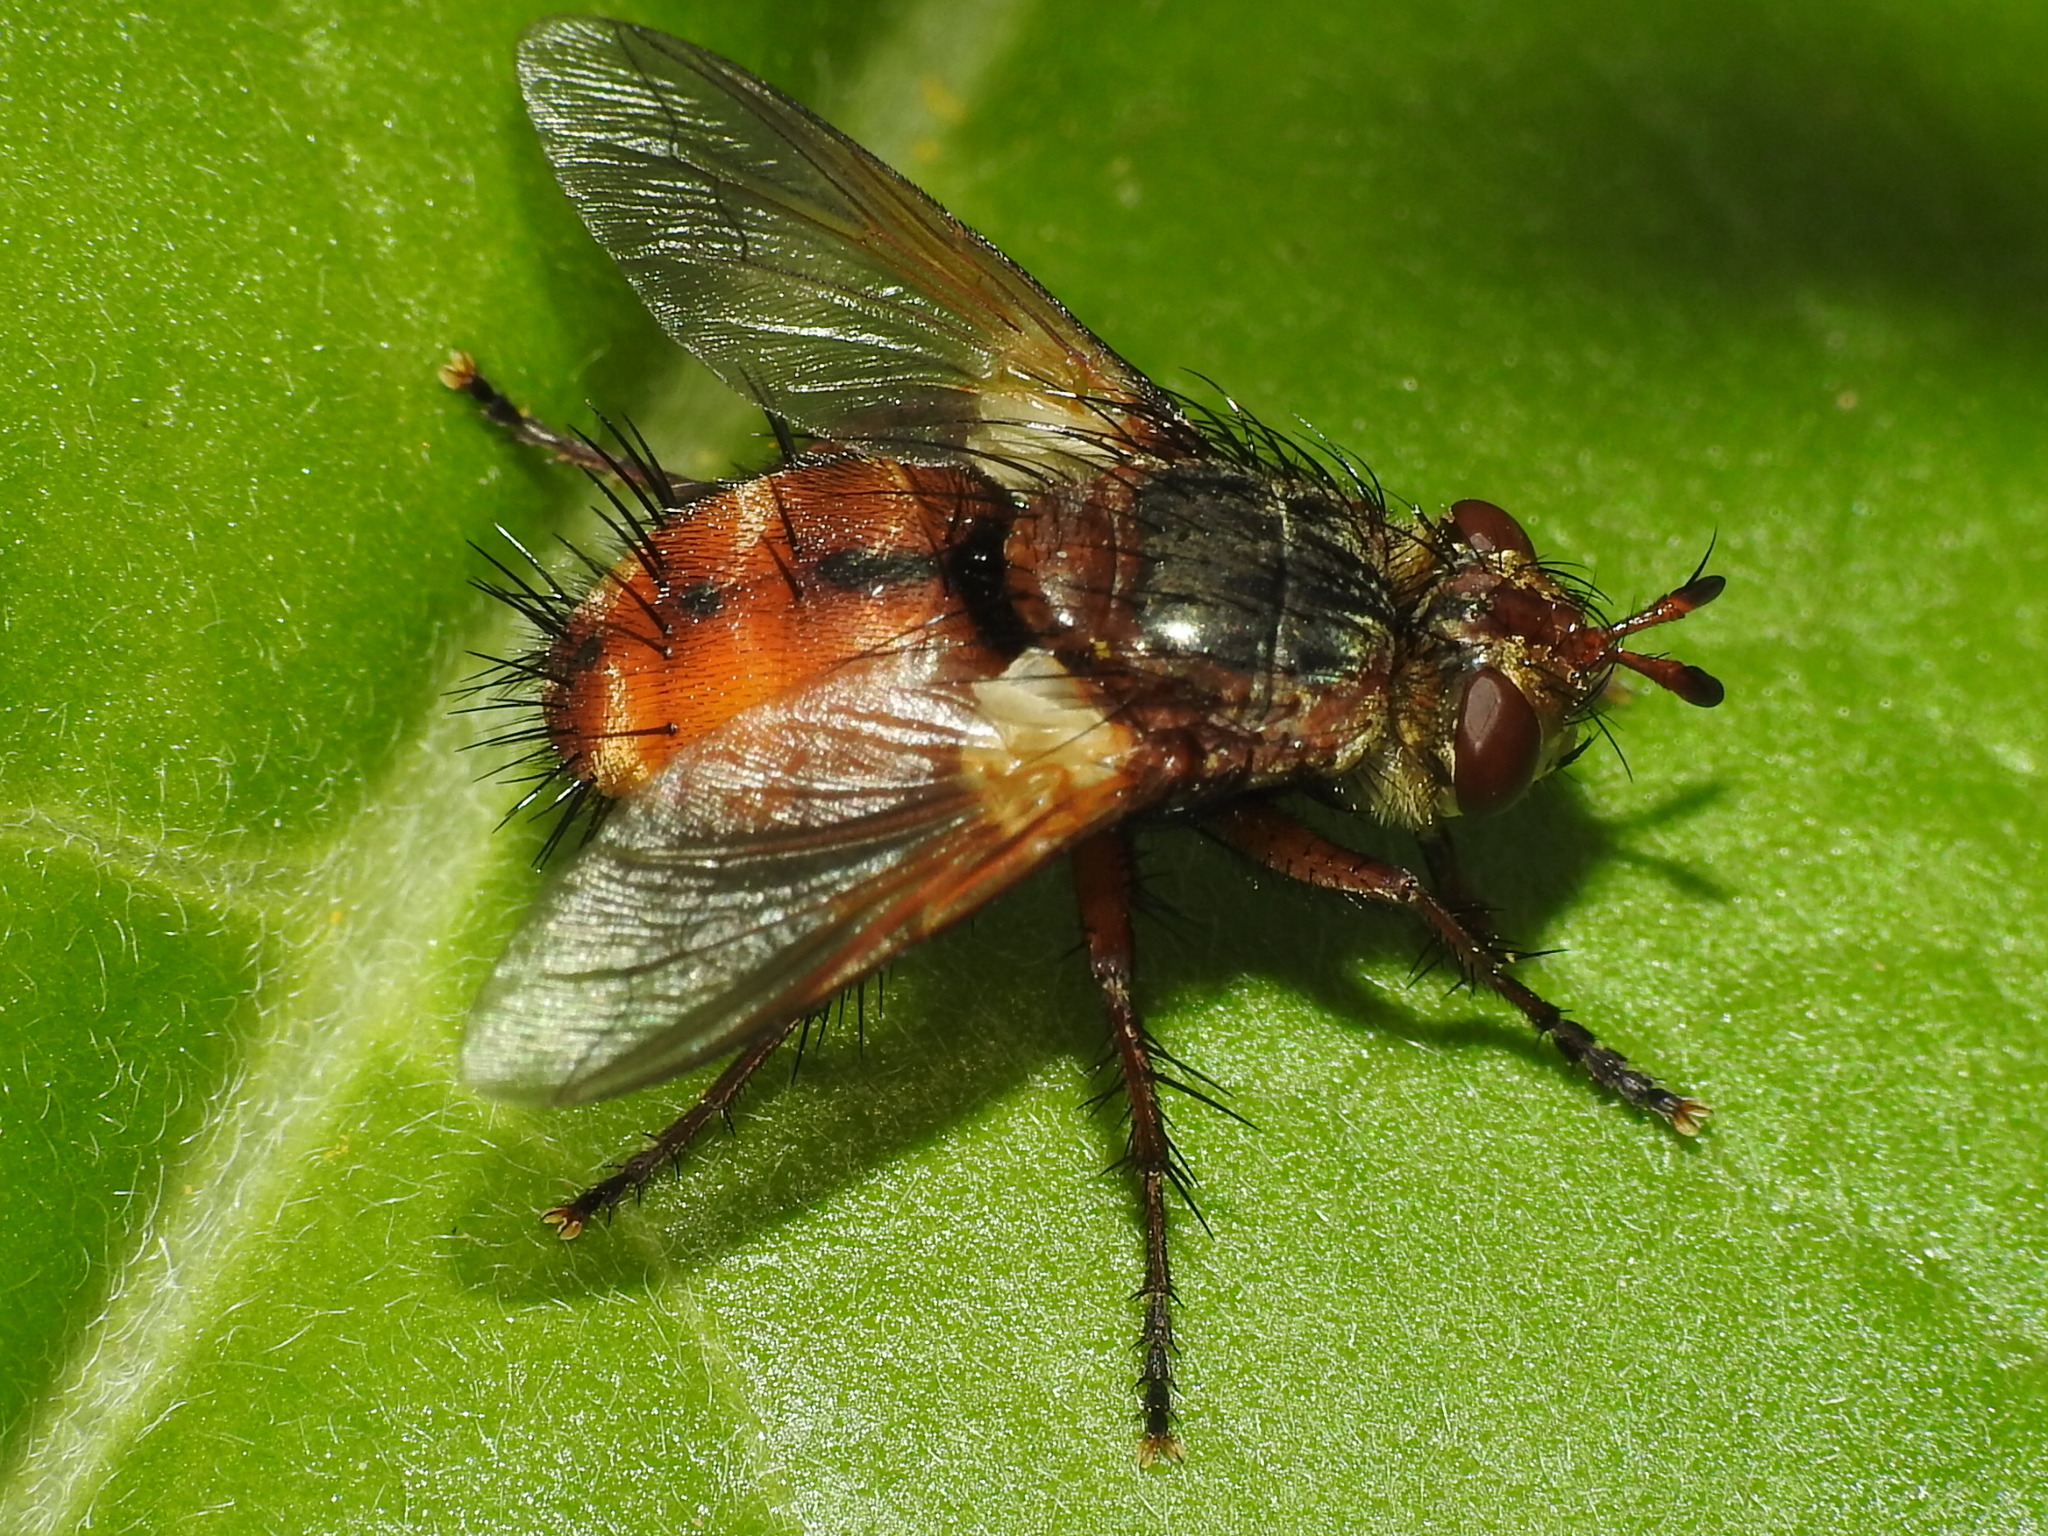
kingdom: Animalia
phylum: Arthropoda
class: Insecta
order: Diptera
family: Tachinidae
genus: Tachina
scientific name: Tachina fera
